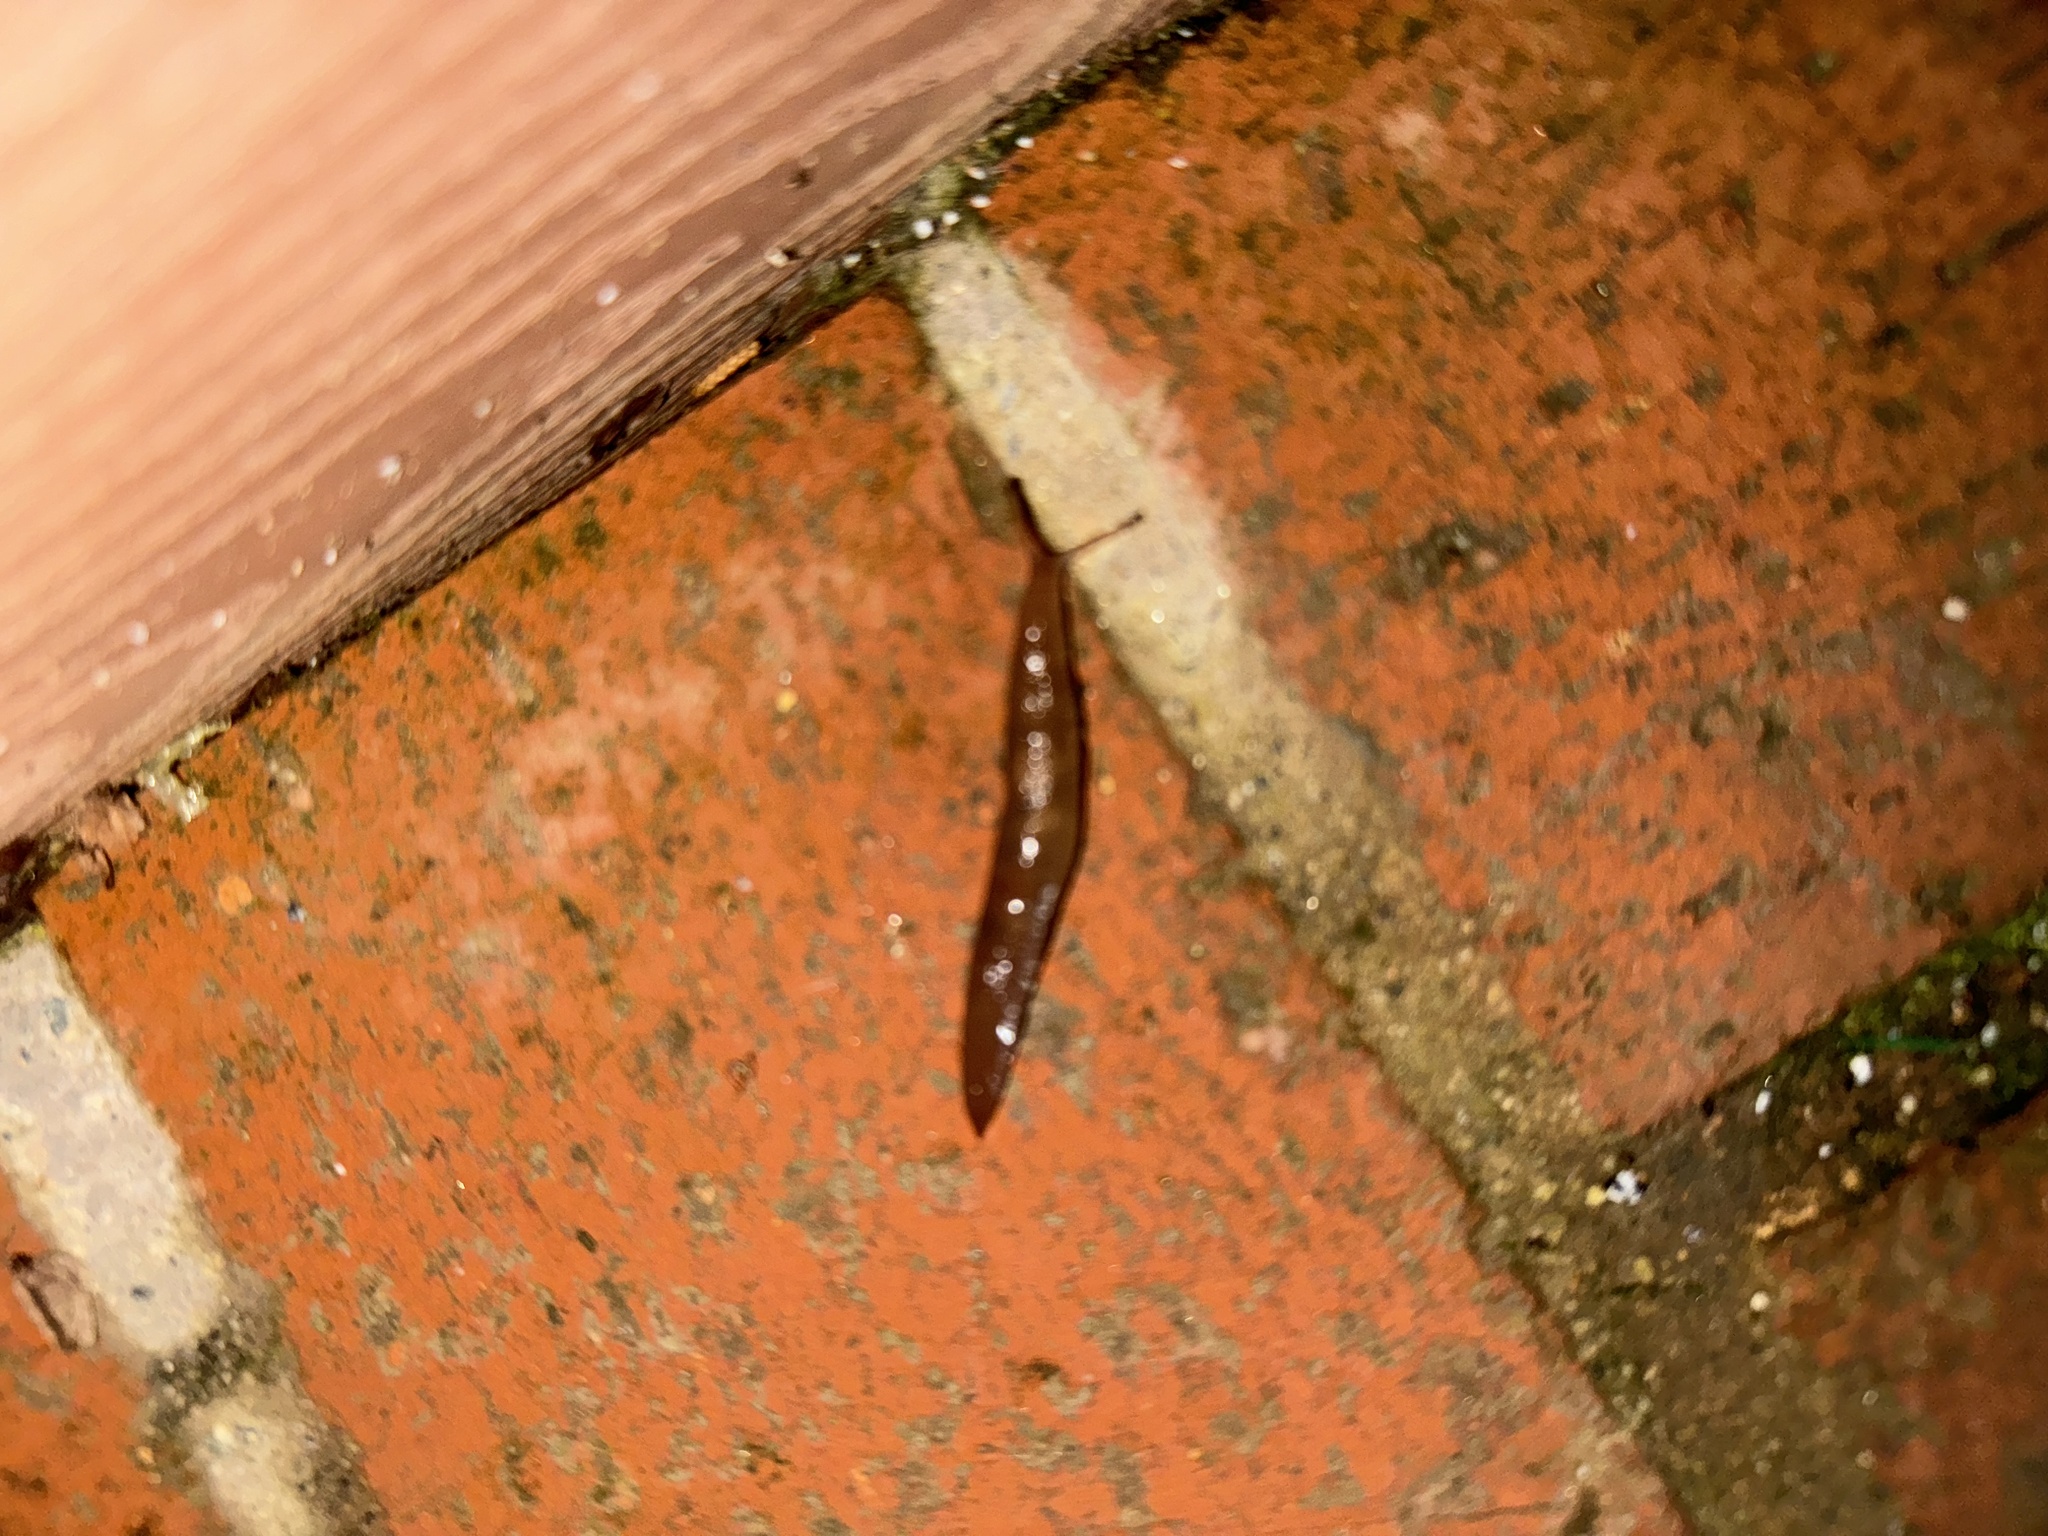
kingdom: Animalia
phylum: Mollusca
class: Gastropoda
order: Stylommatophora
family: Agriolimacidae
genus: Deroceras
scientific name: Deroceras laeve
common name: Marsh slug
